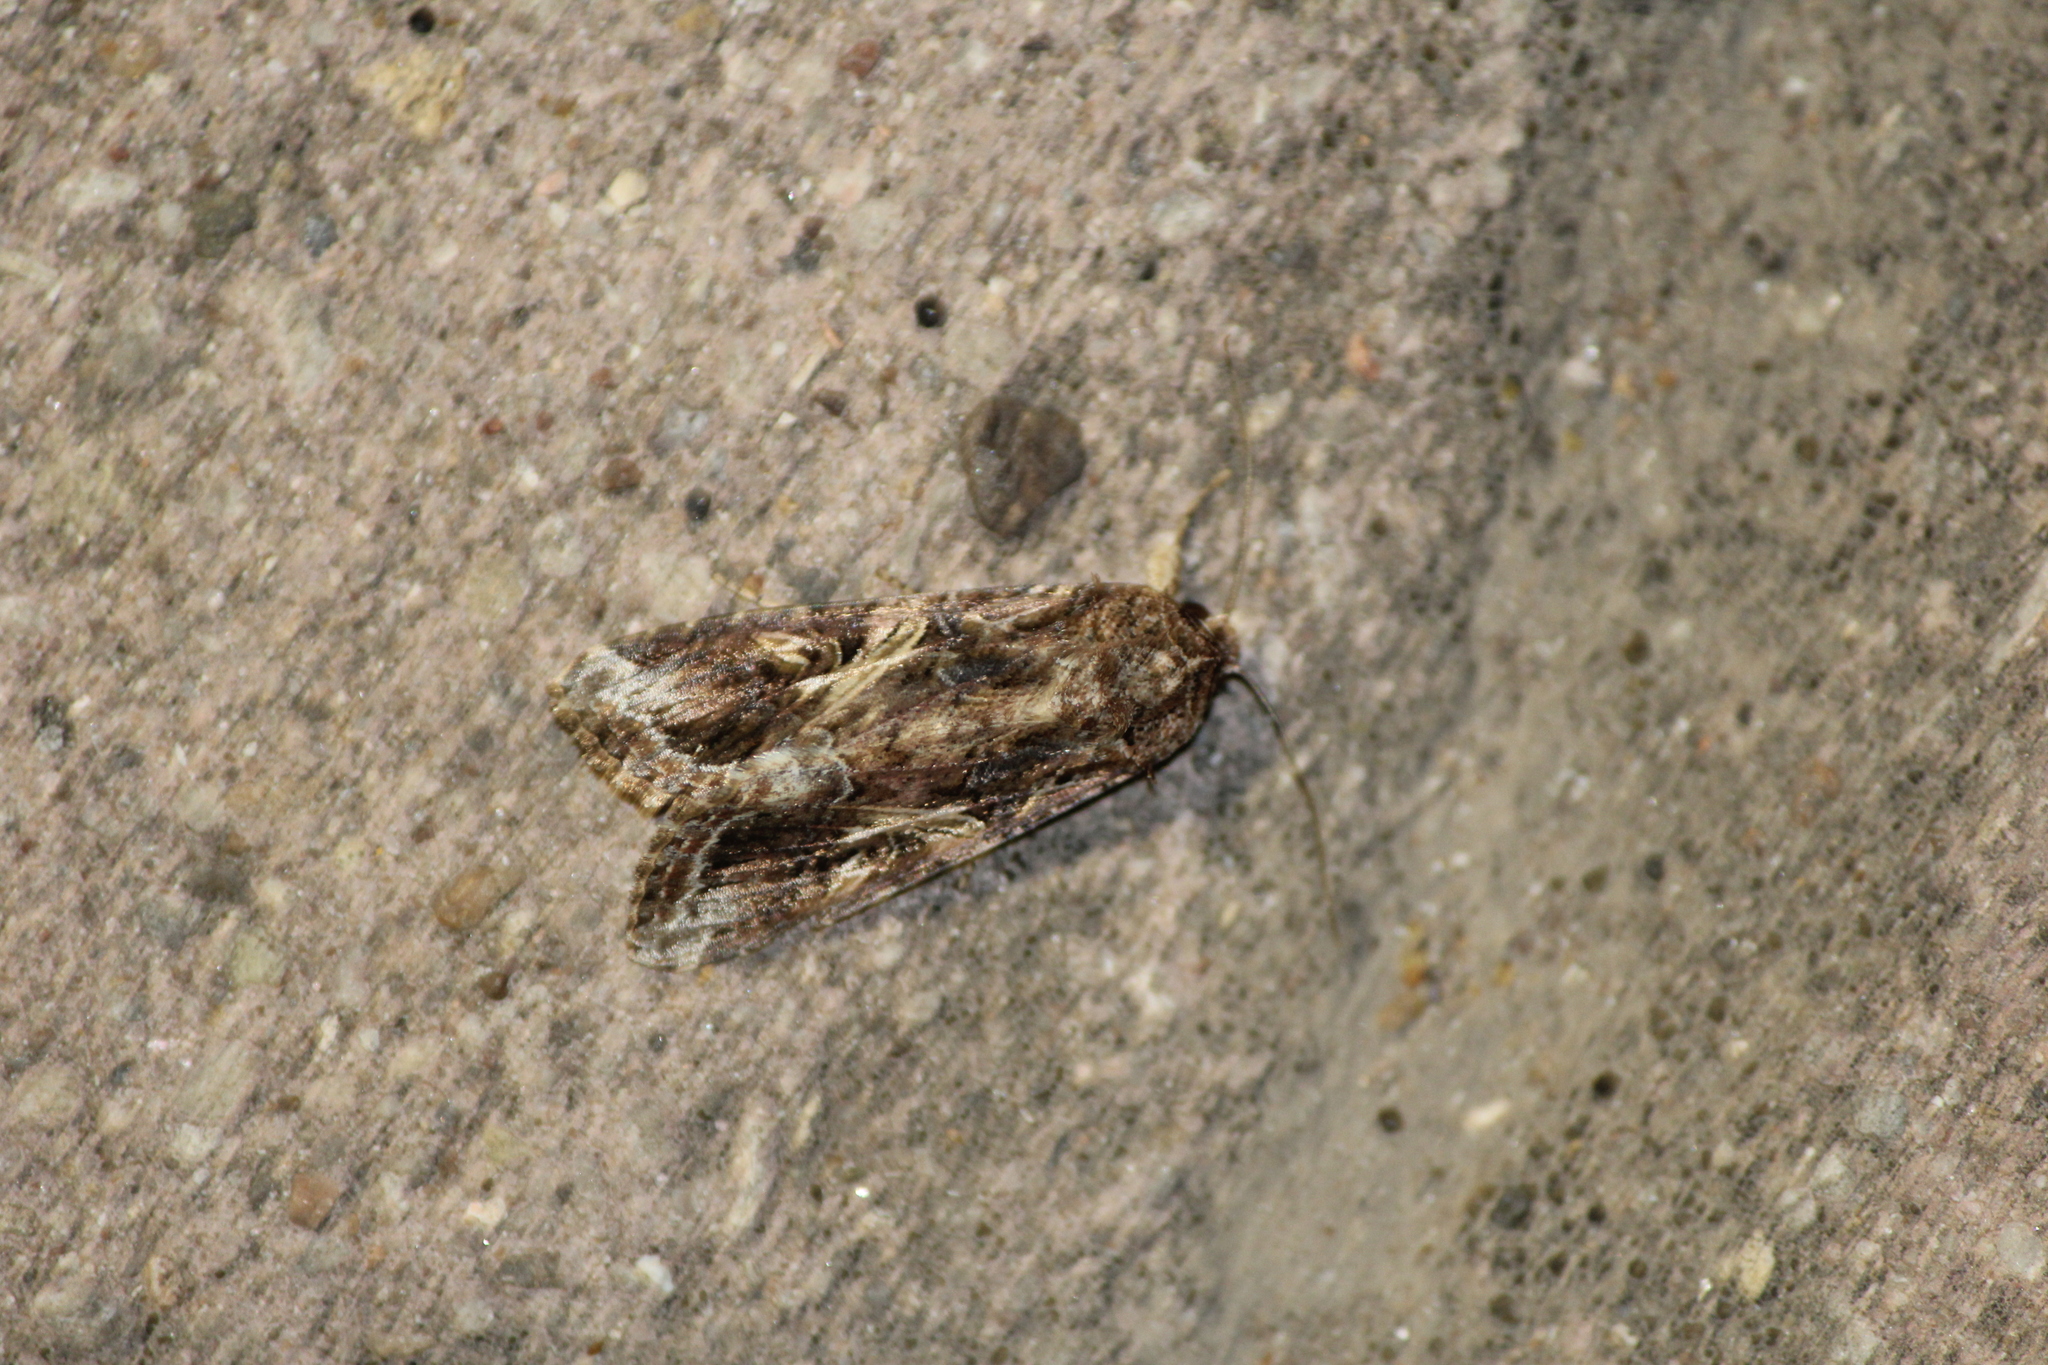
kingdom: Animalia
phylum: Arthropoda
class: Insecta
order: Lepidoptera
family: Noctuidae
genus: Spodoptera
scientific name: Spodoptera frugiperda
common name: Fall armyworm
